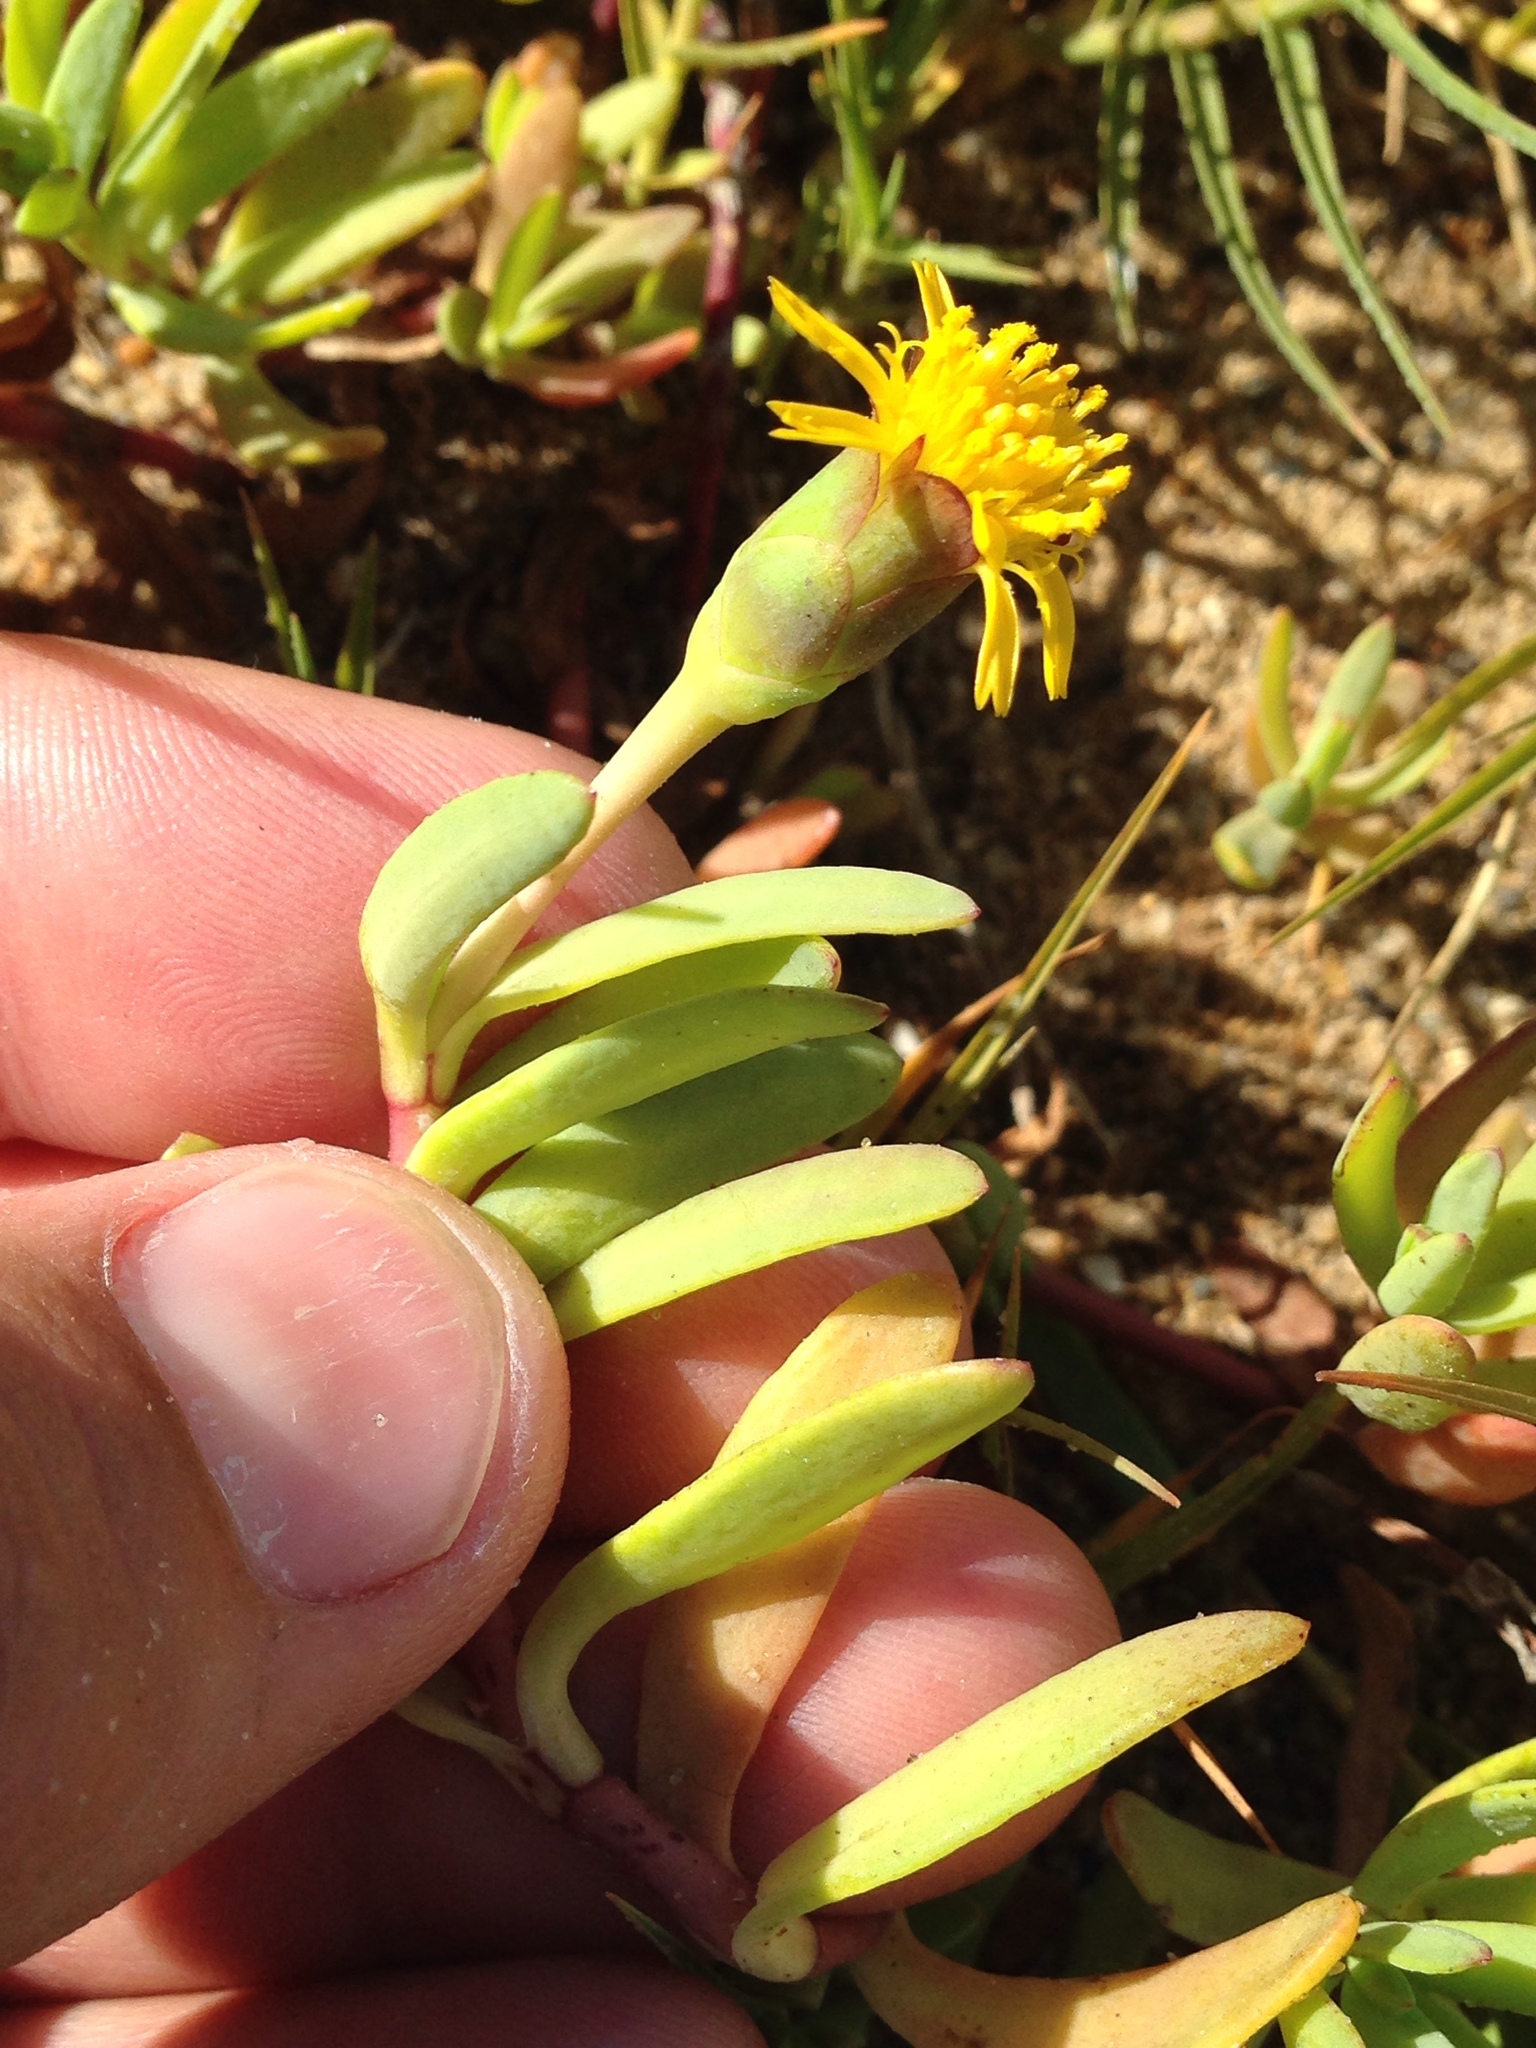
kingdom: Plantae
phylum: Tracheophyta
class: Magnoliopsida
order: Asterales
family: Asteraceae
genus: Jaumea
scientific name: Jaumea carnosa
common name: Fleshy jaumea
